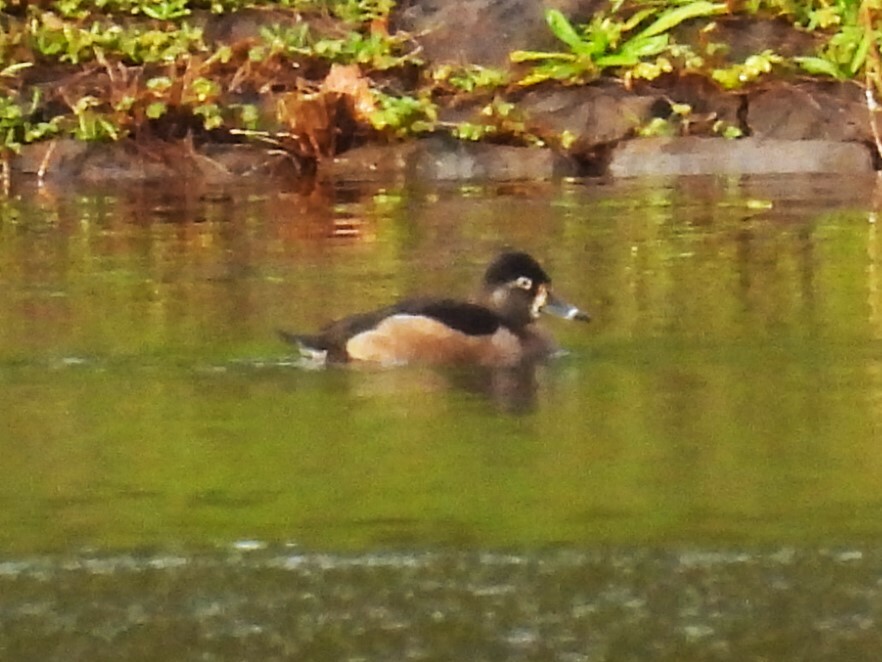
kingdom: Animalia
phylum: Chordata
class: Aves
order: Anseriformes
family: Anatidae
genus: Aythya
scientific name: Aythya collaris
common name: Ring-necked duck
